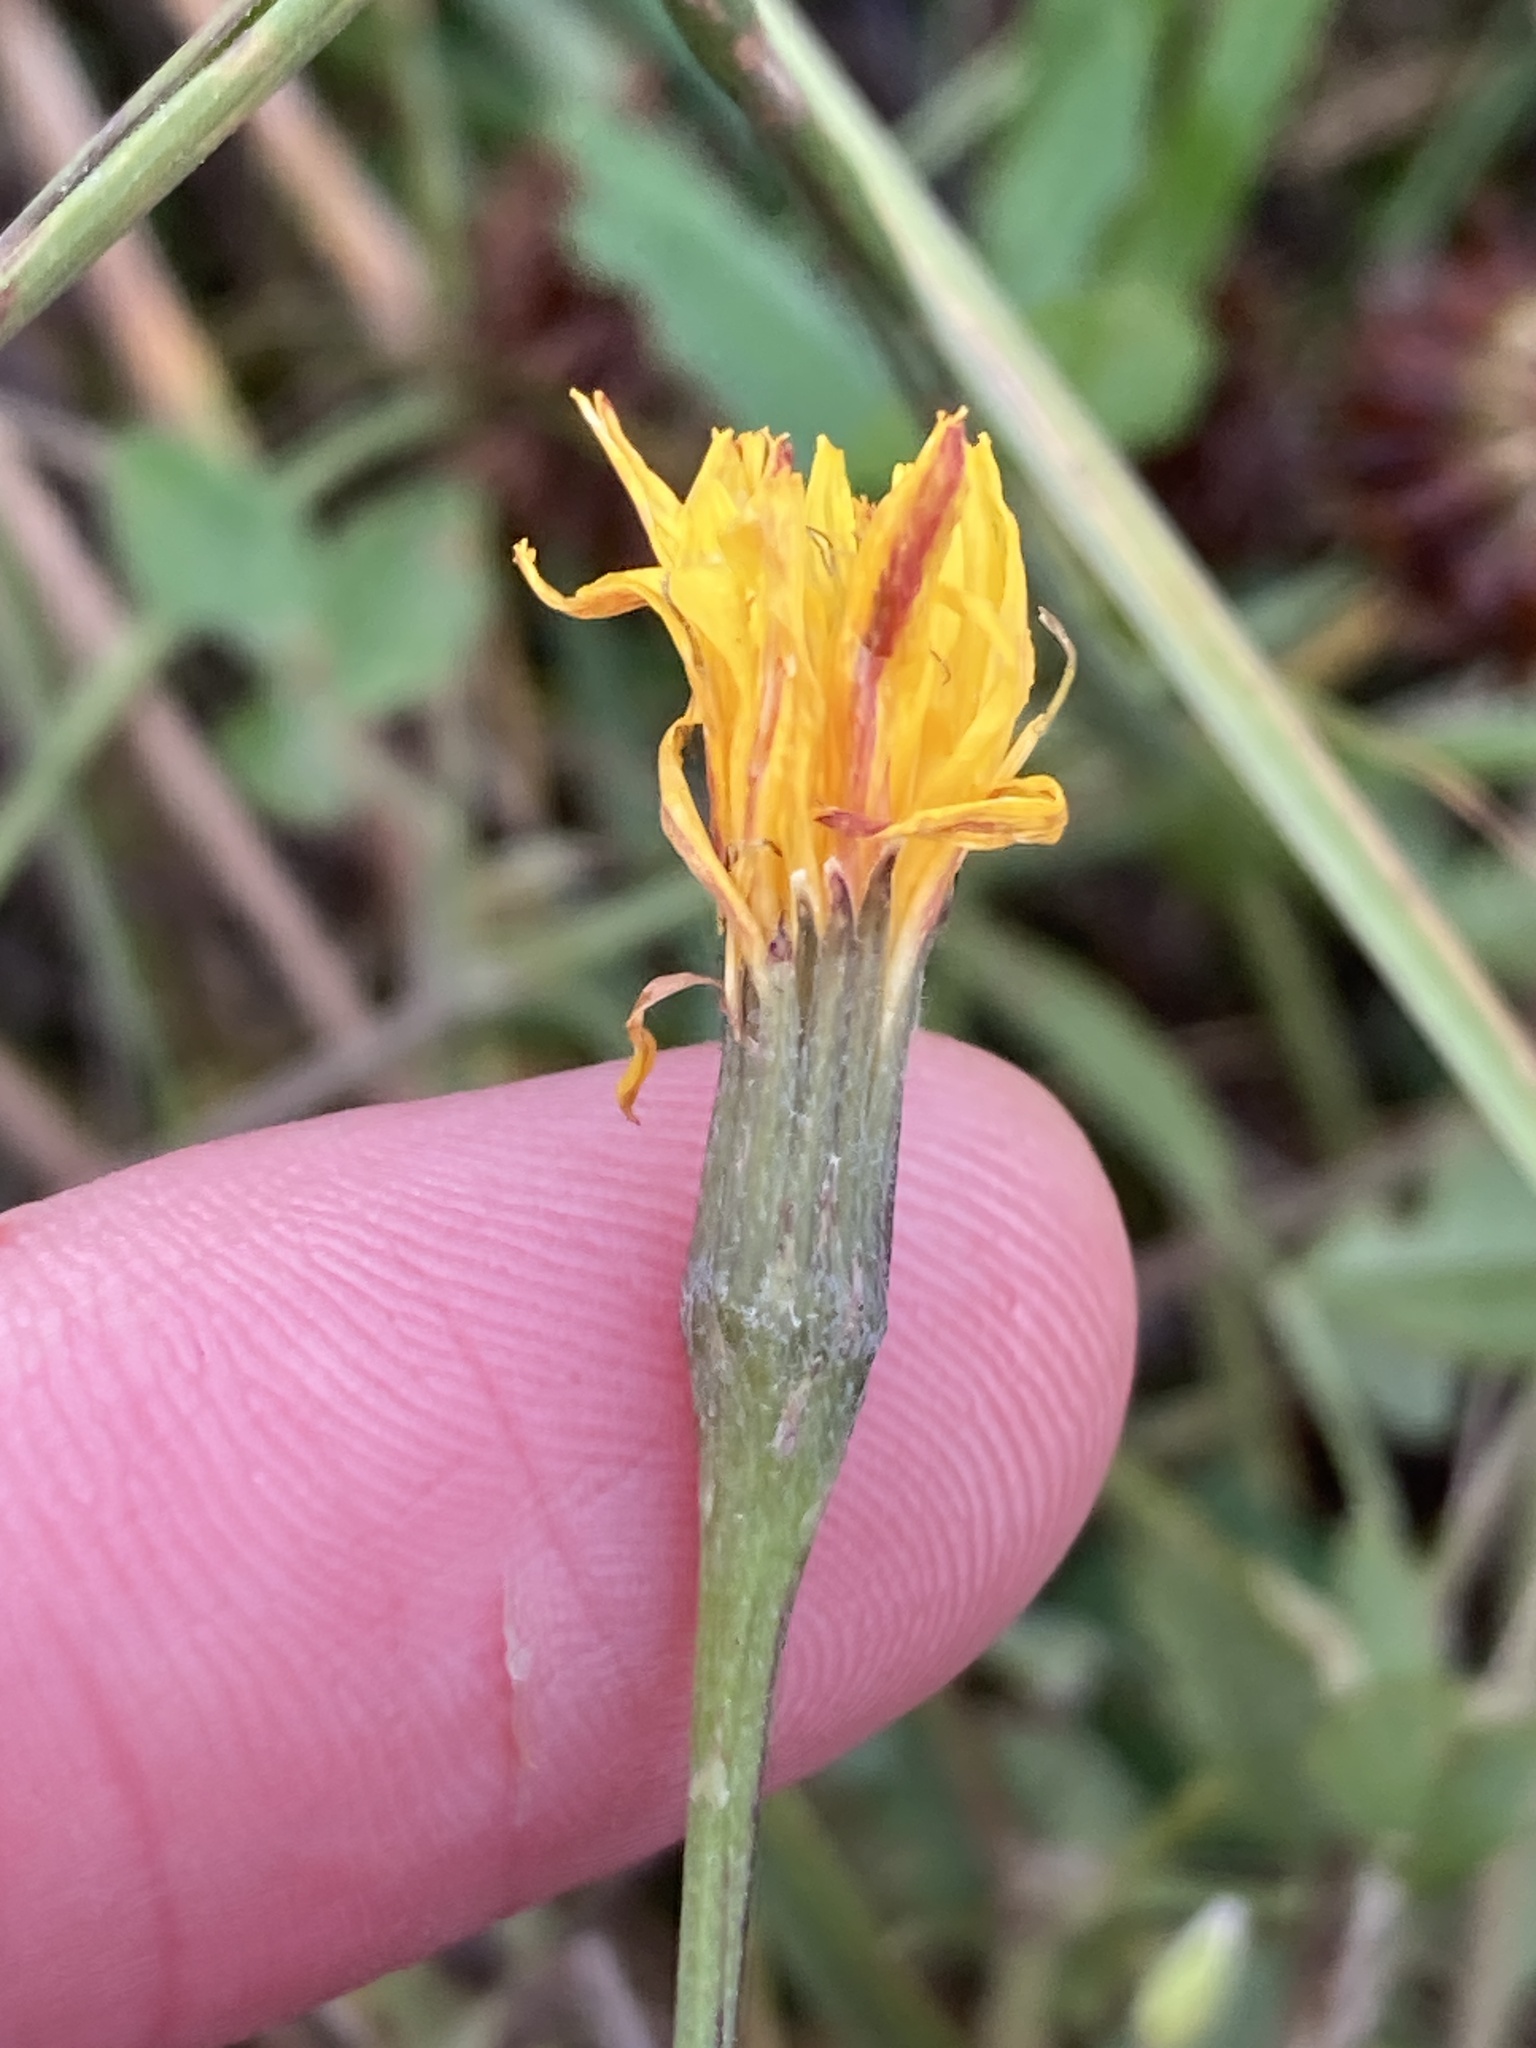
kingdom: Plantae
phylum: Tracheophyta
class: Magnoliopsida
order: Asterales
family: Asteraceae
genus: Scorzoneroides
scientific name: Scorzoneroides autumnalis
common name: Autumn hawkbit
